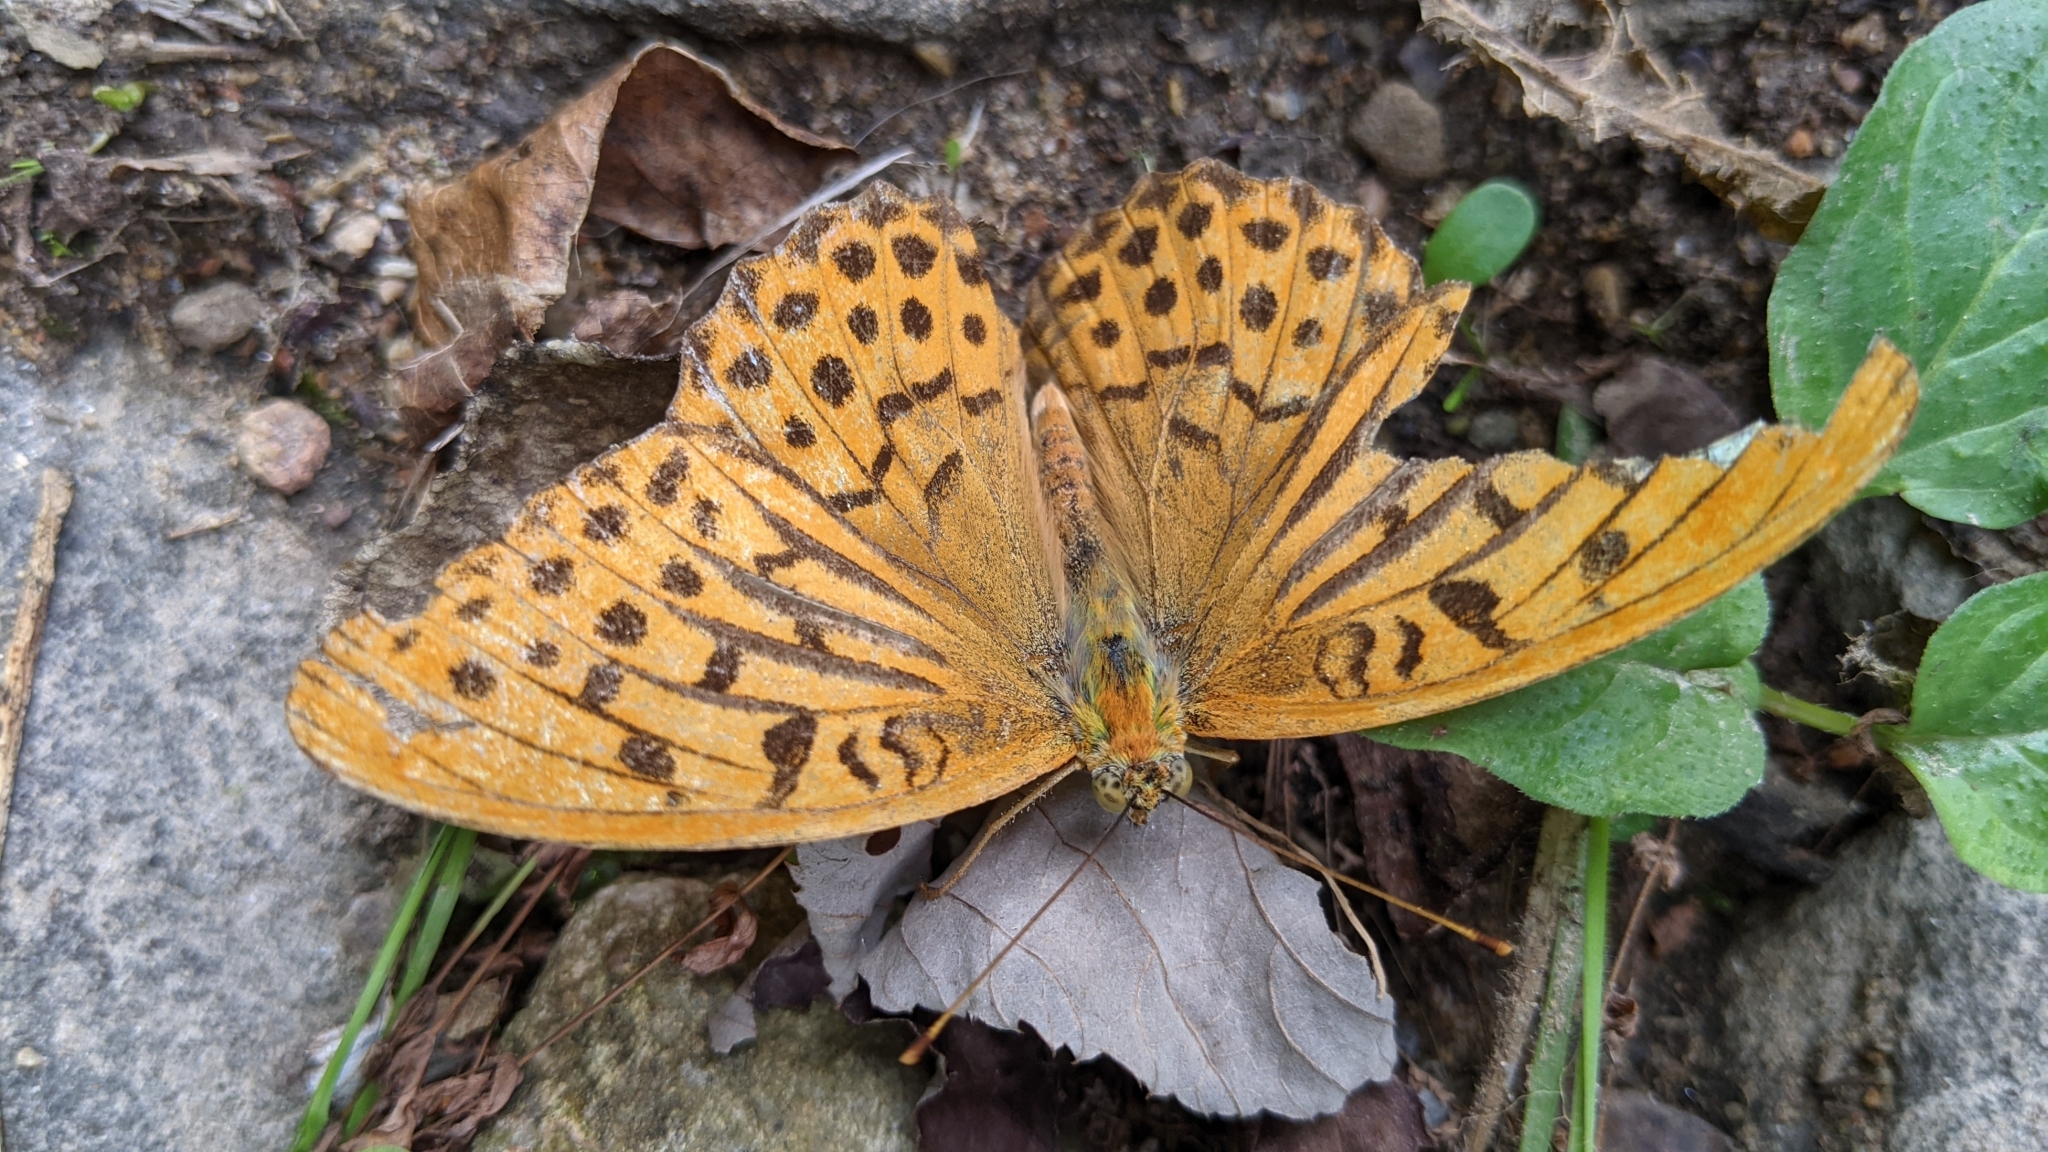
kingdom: Animalia
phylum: Arthropoda
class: Insecta
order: Lepidoptera
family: Nymphalidae
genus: Argynnis
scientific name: Argynnis paphia
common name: Silver-washed fritillary
